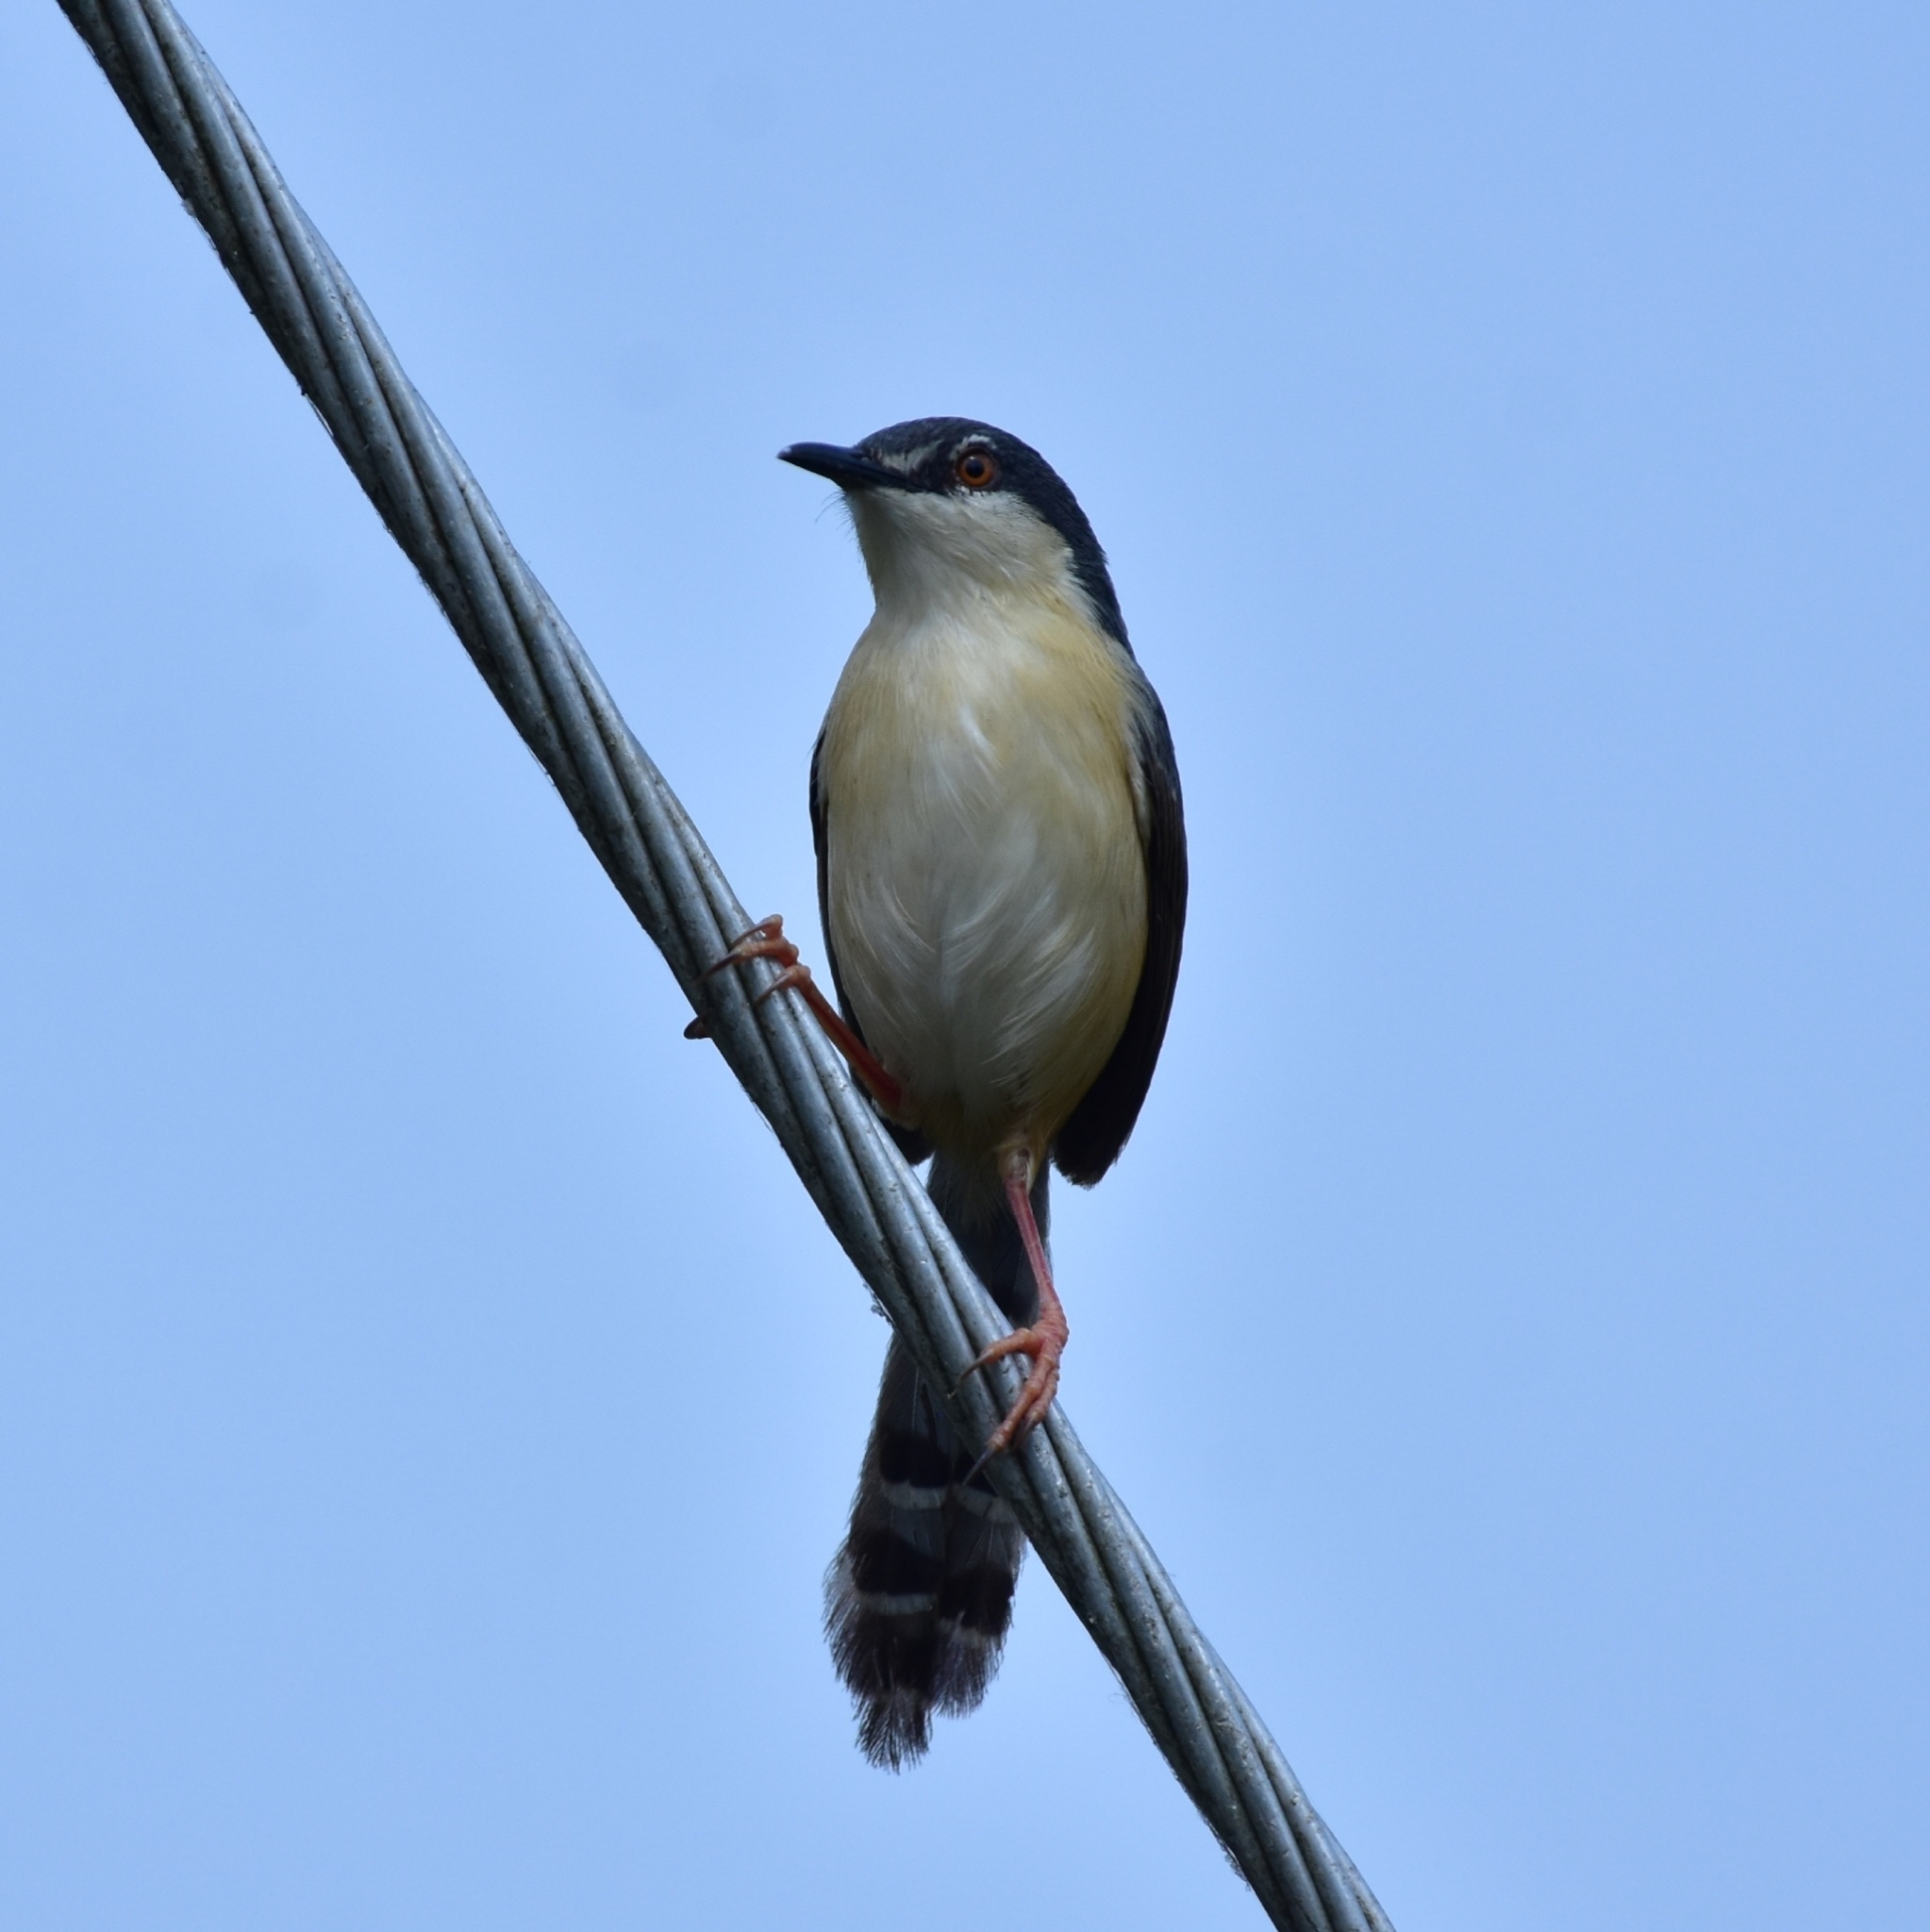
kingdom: Animalia
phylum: Chordata
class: Aves
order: Passeriformes
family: Cisticolidae
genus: Prinia
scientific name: Prinia socialis
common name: Ashy prinia
